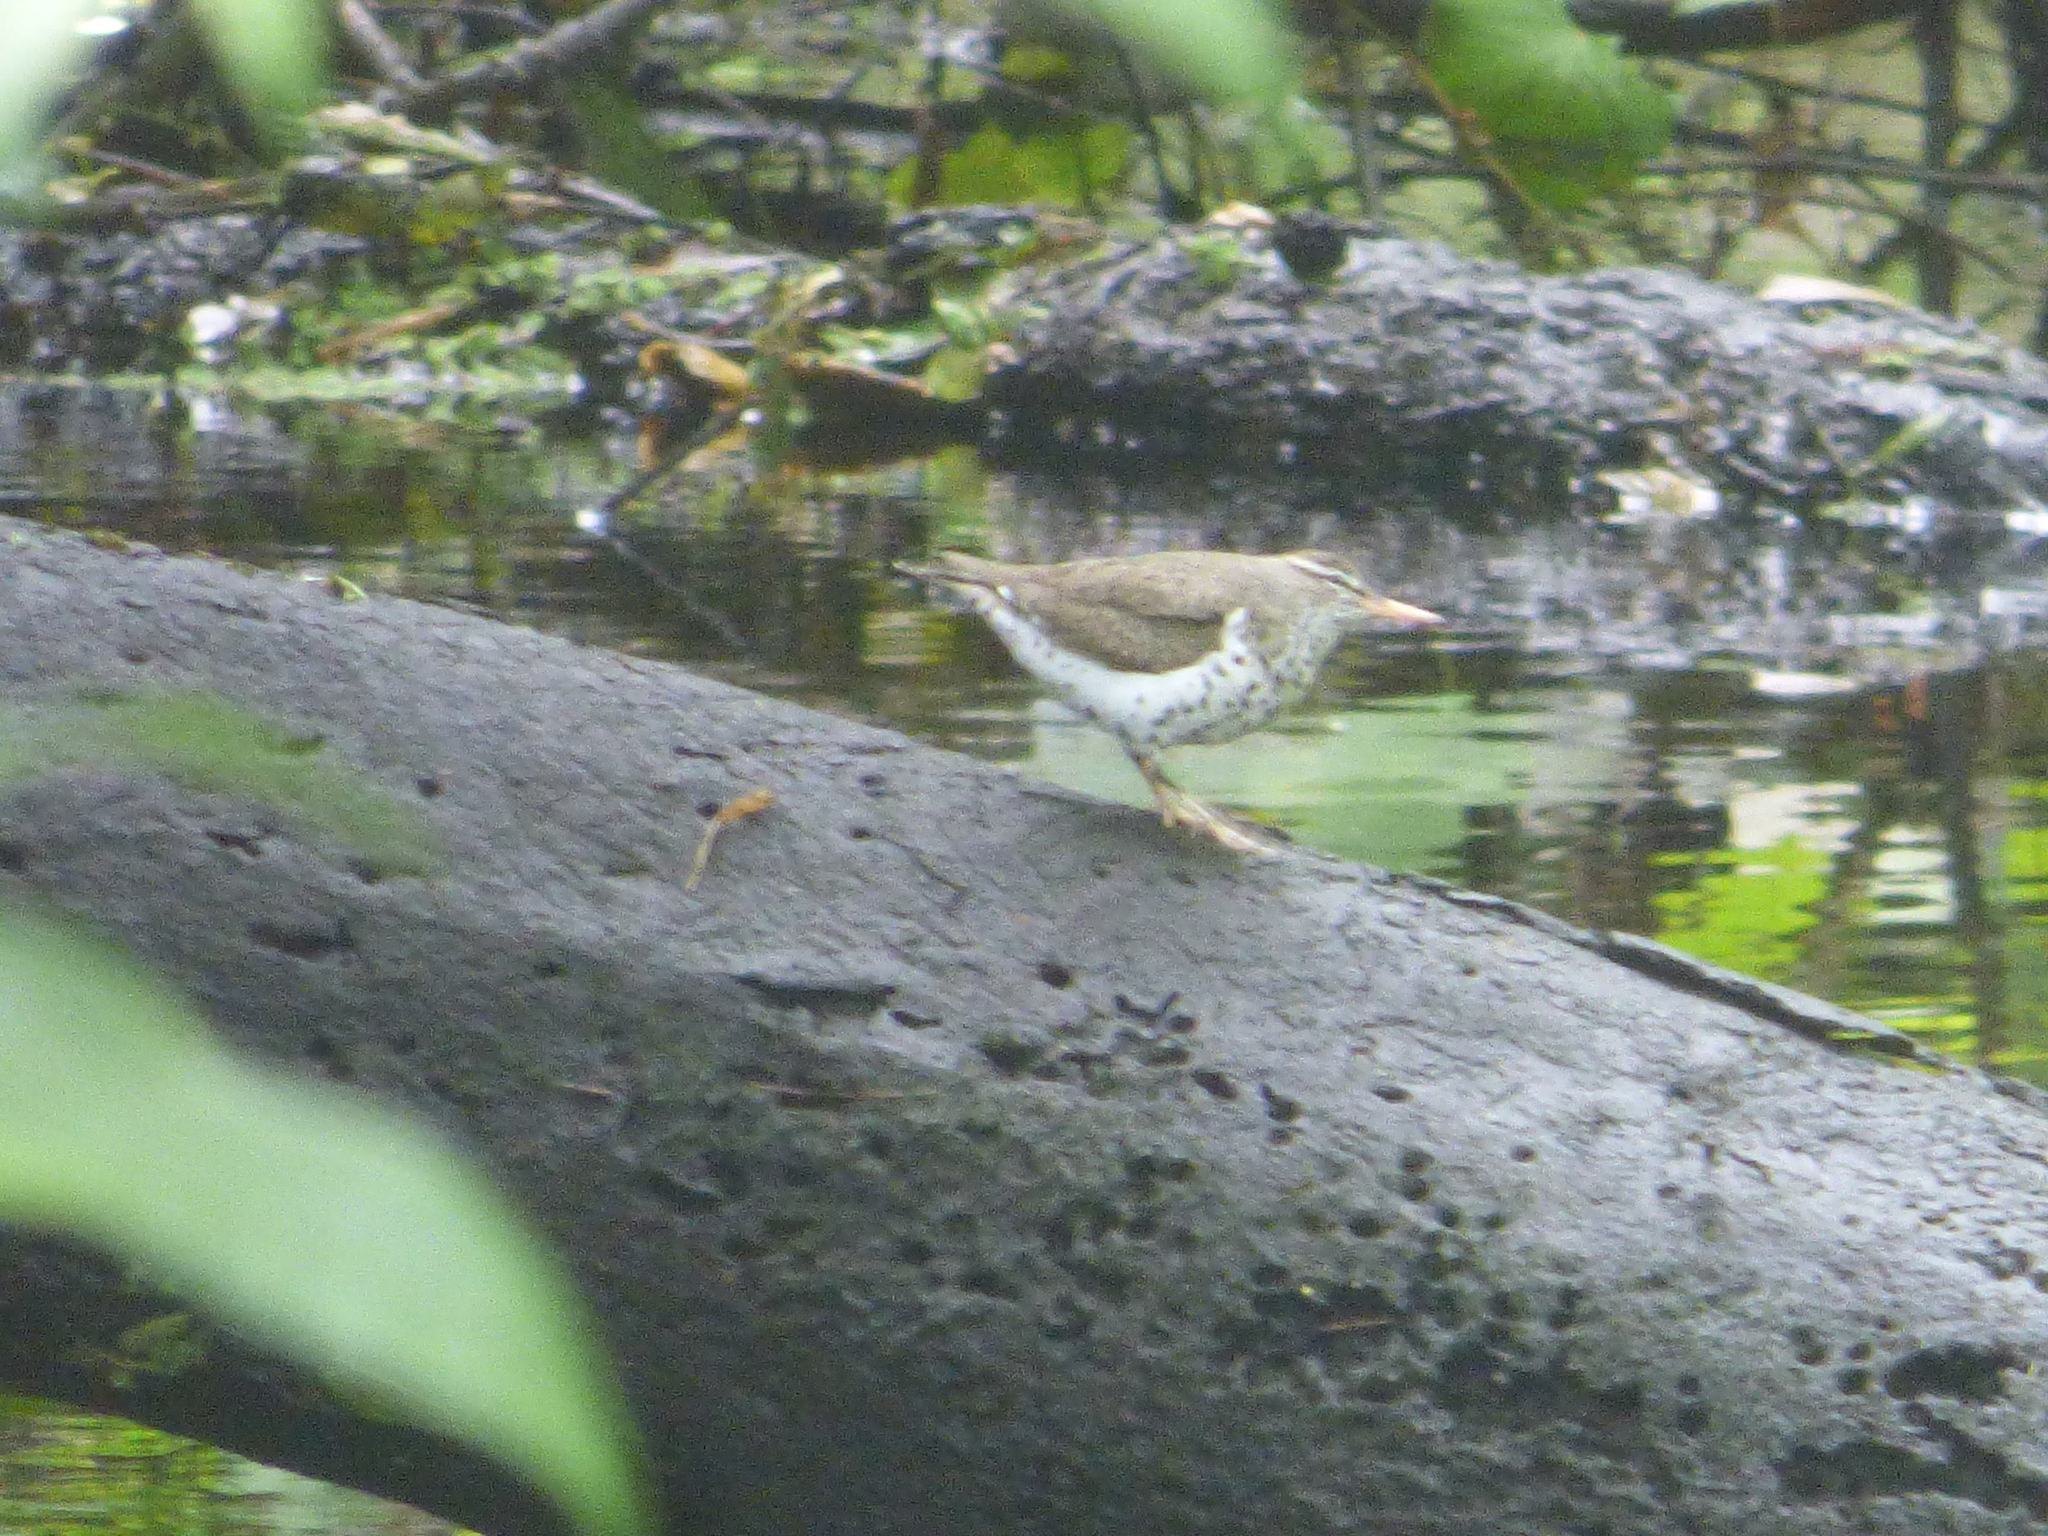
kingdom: Animalia
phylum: Chordata
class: Aves
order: Charadriiformes
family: Scolopacidae
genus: Actitis
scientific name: Actitis macularius
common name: Spotted sandpiper
